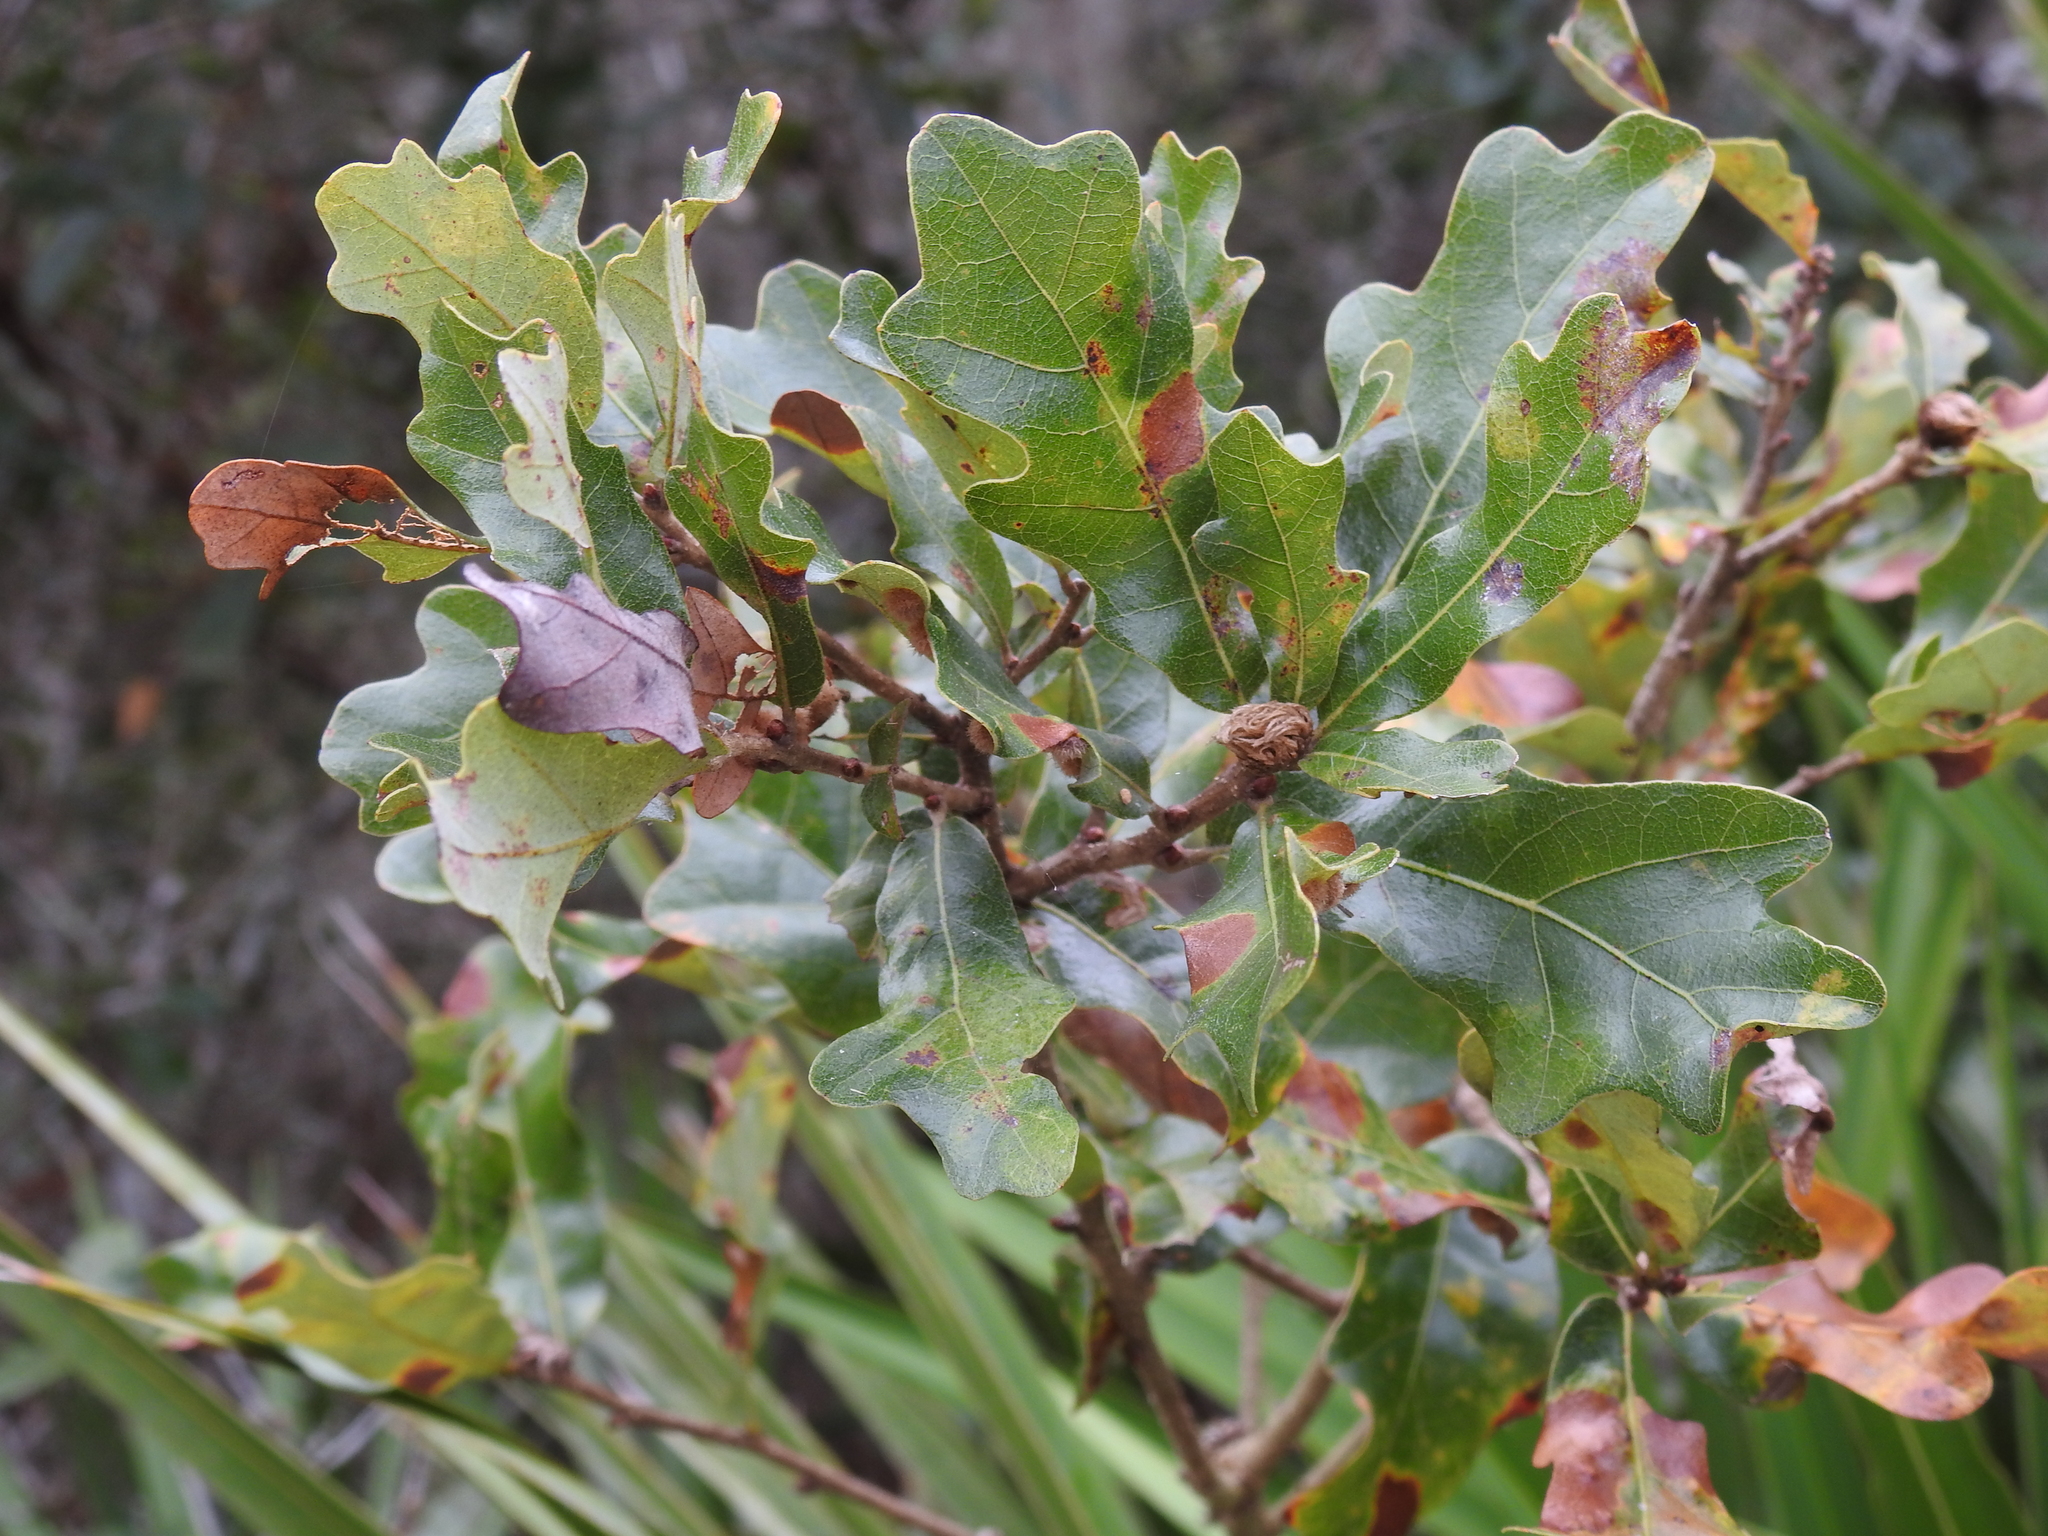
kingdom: Plantae
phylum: Tracheophyta
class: Magnoliopsida
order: Fagales
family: Fagaceae
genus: Quercus
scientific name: Quercus chapmanii
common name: Chapman oak
